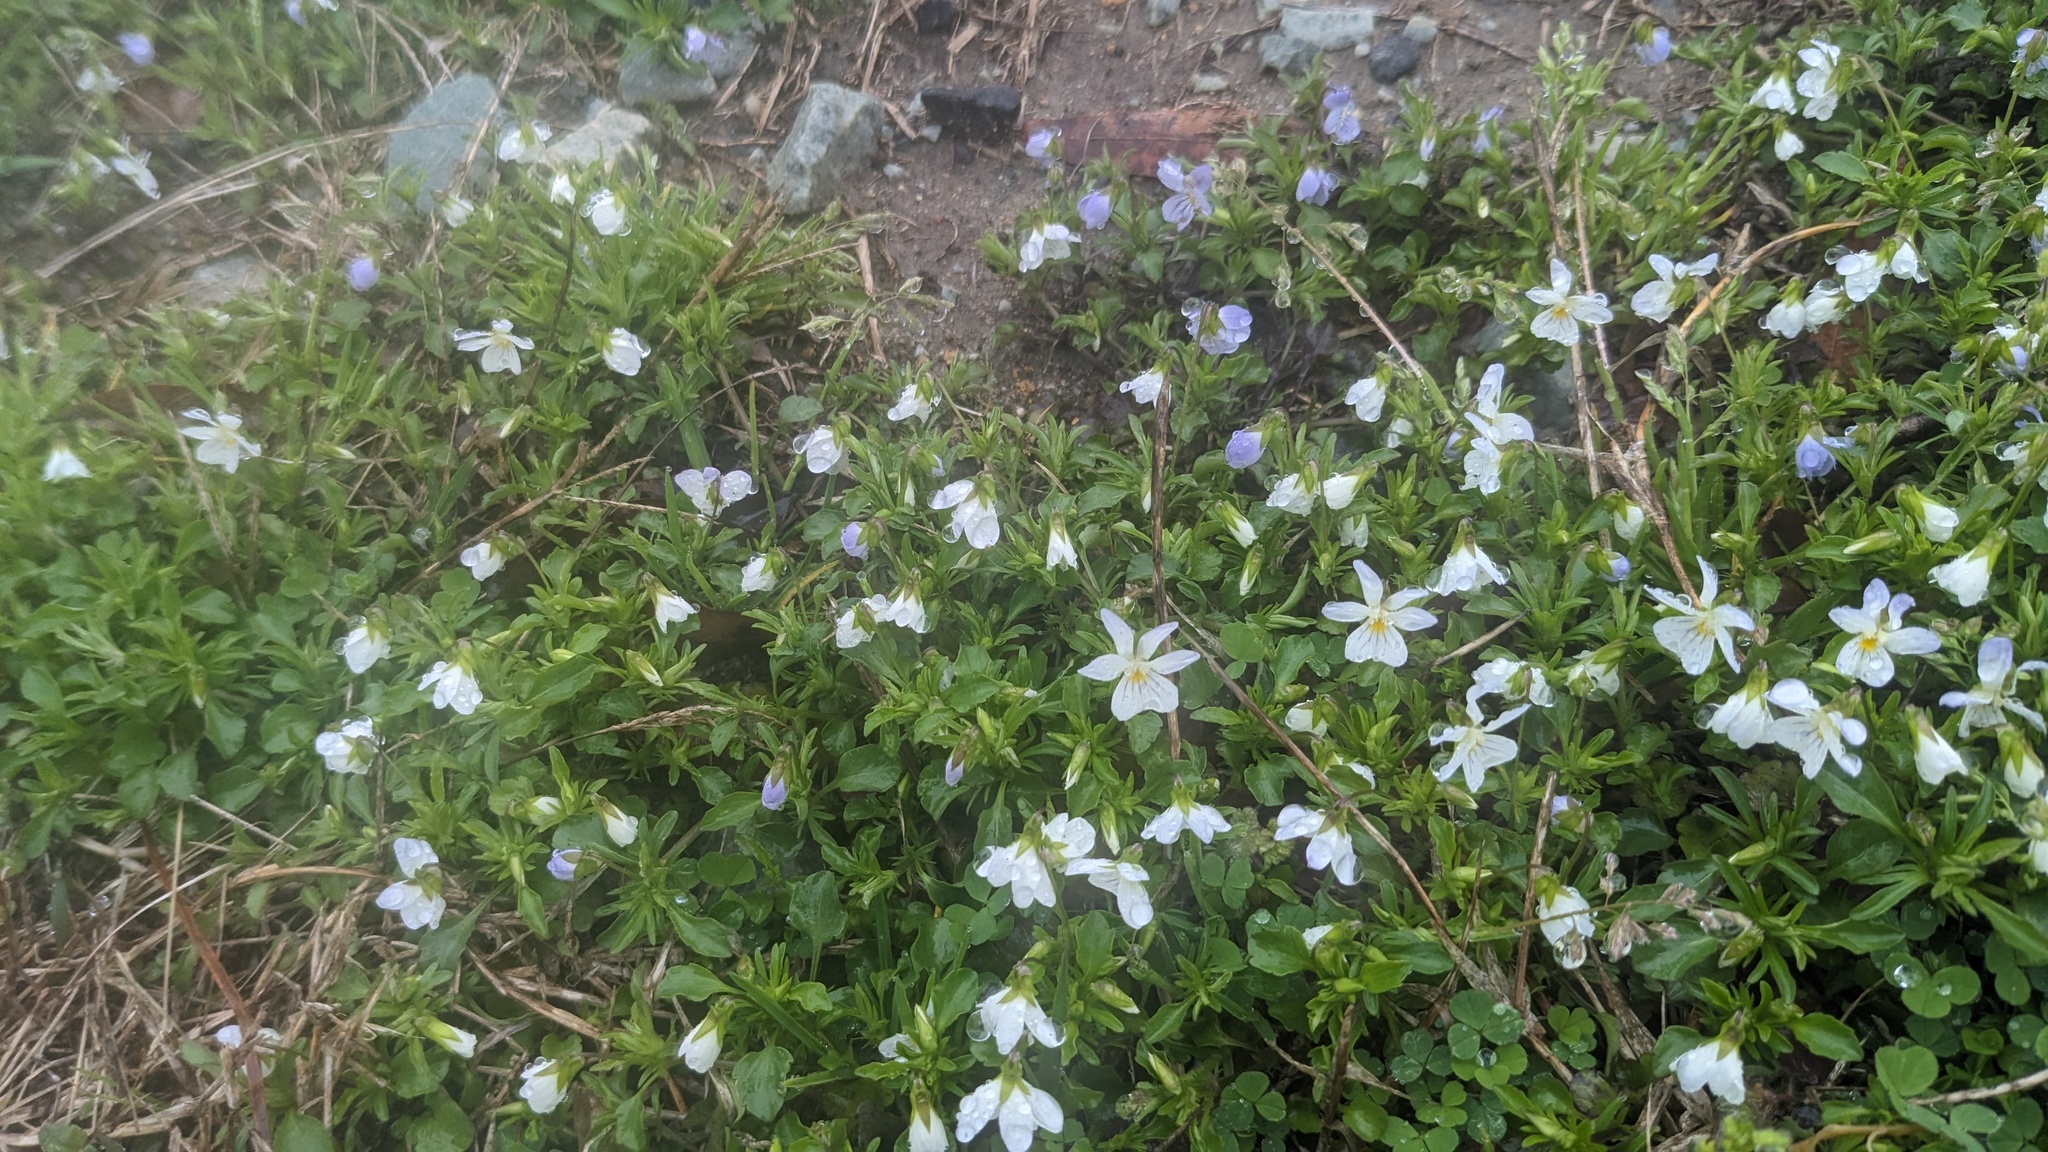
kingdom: Plantae
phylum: Tracheophyta
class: Magnoliopsida
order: Malpighiales
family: Violaceae
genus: Viola
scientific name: Viola rafinesquei
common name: American field pansy
